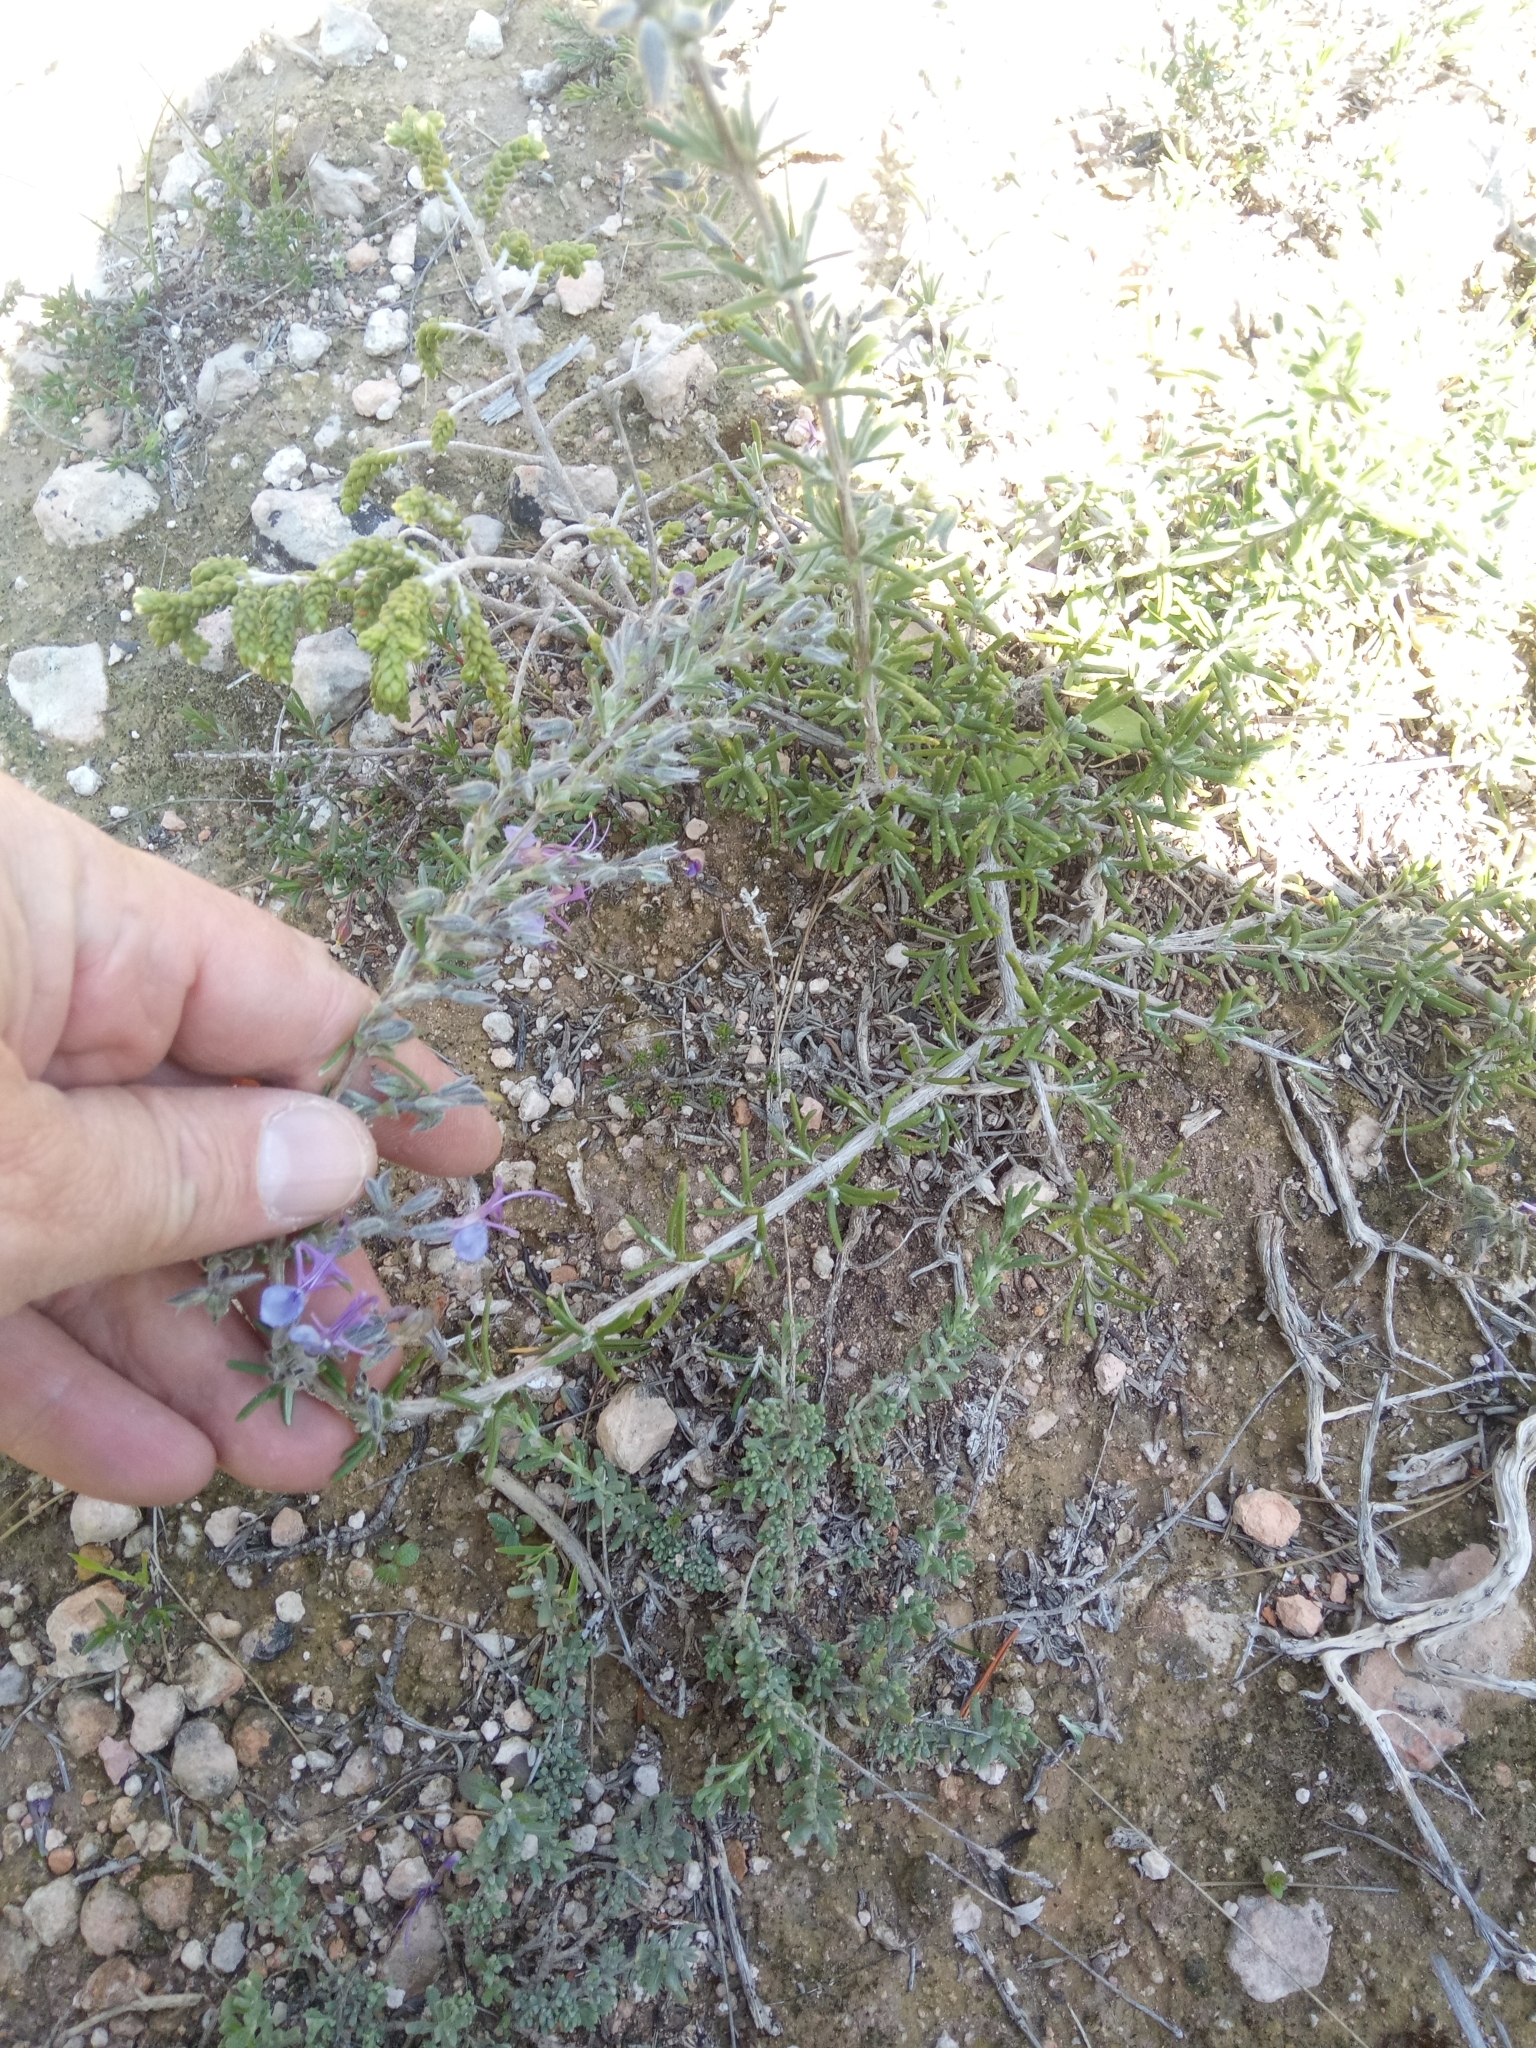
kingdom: Plantae
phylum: Tracheophyta
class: Magnoliopsida
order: Lamiales
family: Lamiaceae
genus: Salvia
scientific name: Salvia jordanii
